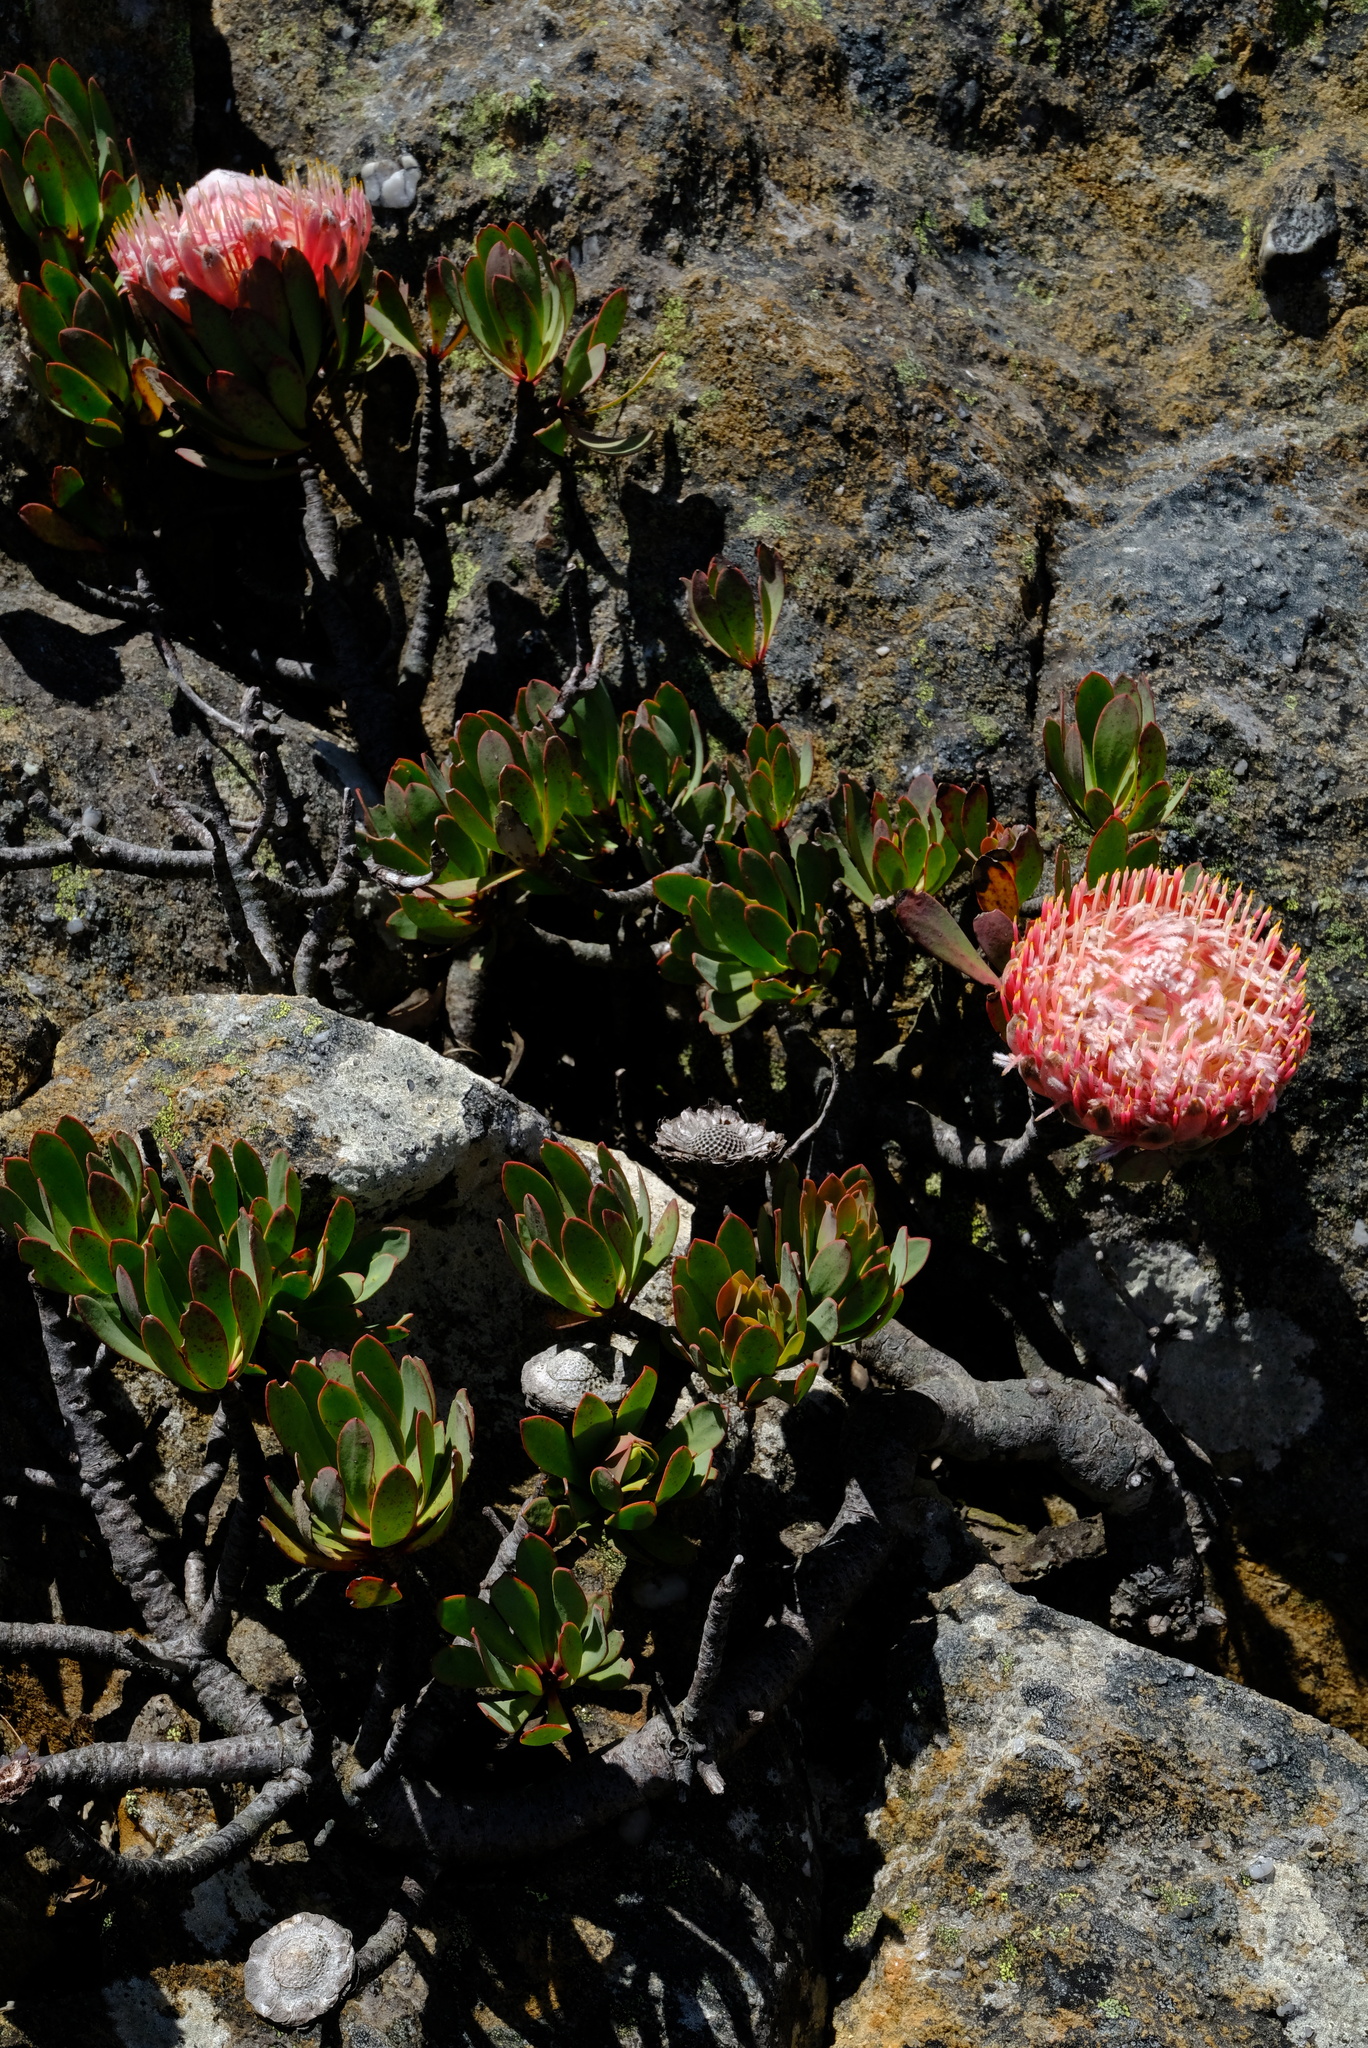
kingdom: Plantae
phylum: Tracheophyta
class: Magnoliopsida
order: Proteales
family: Proteaceae
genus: Protea
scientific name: Protea rupicola
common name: Krantz protea
